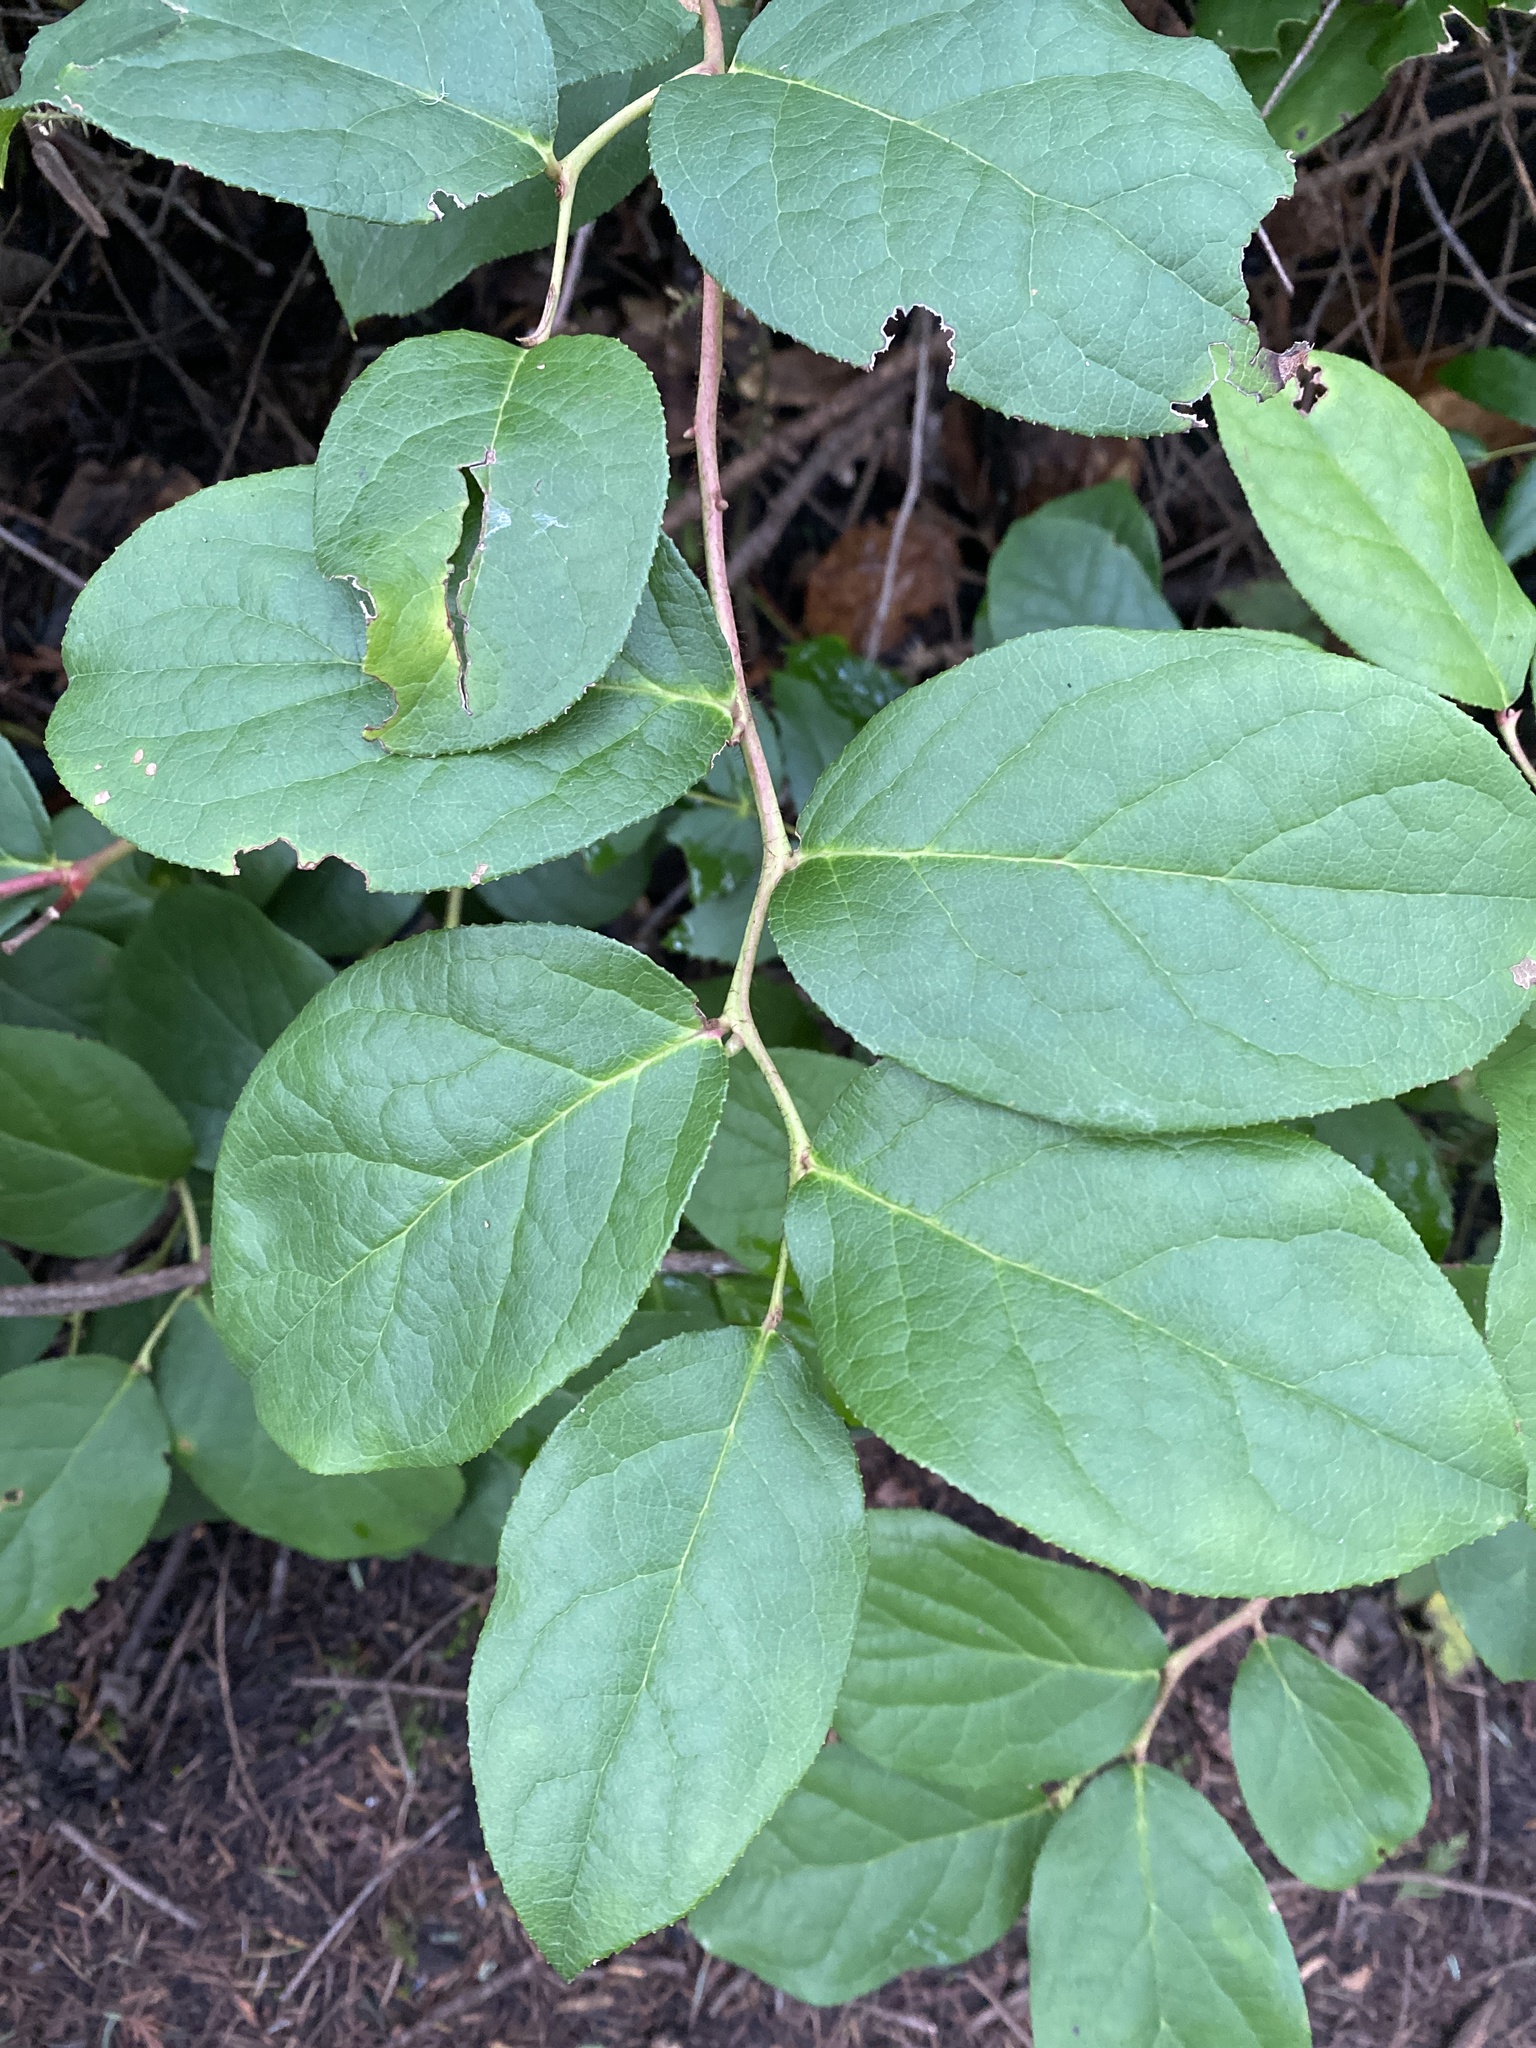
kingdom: Plantae
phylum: Tracheophyta
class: Magnoliopsida
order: Ericales
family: Ericaceae
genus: Gaultheria
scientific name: Gaultheria shallon
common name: Shallon
